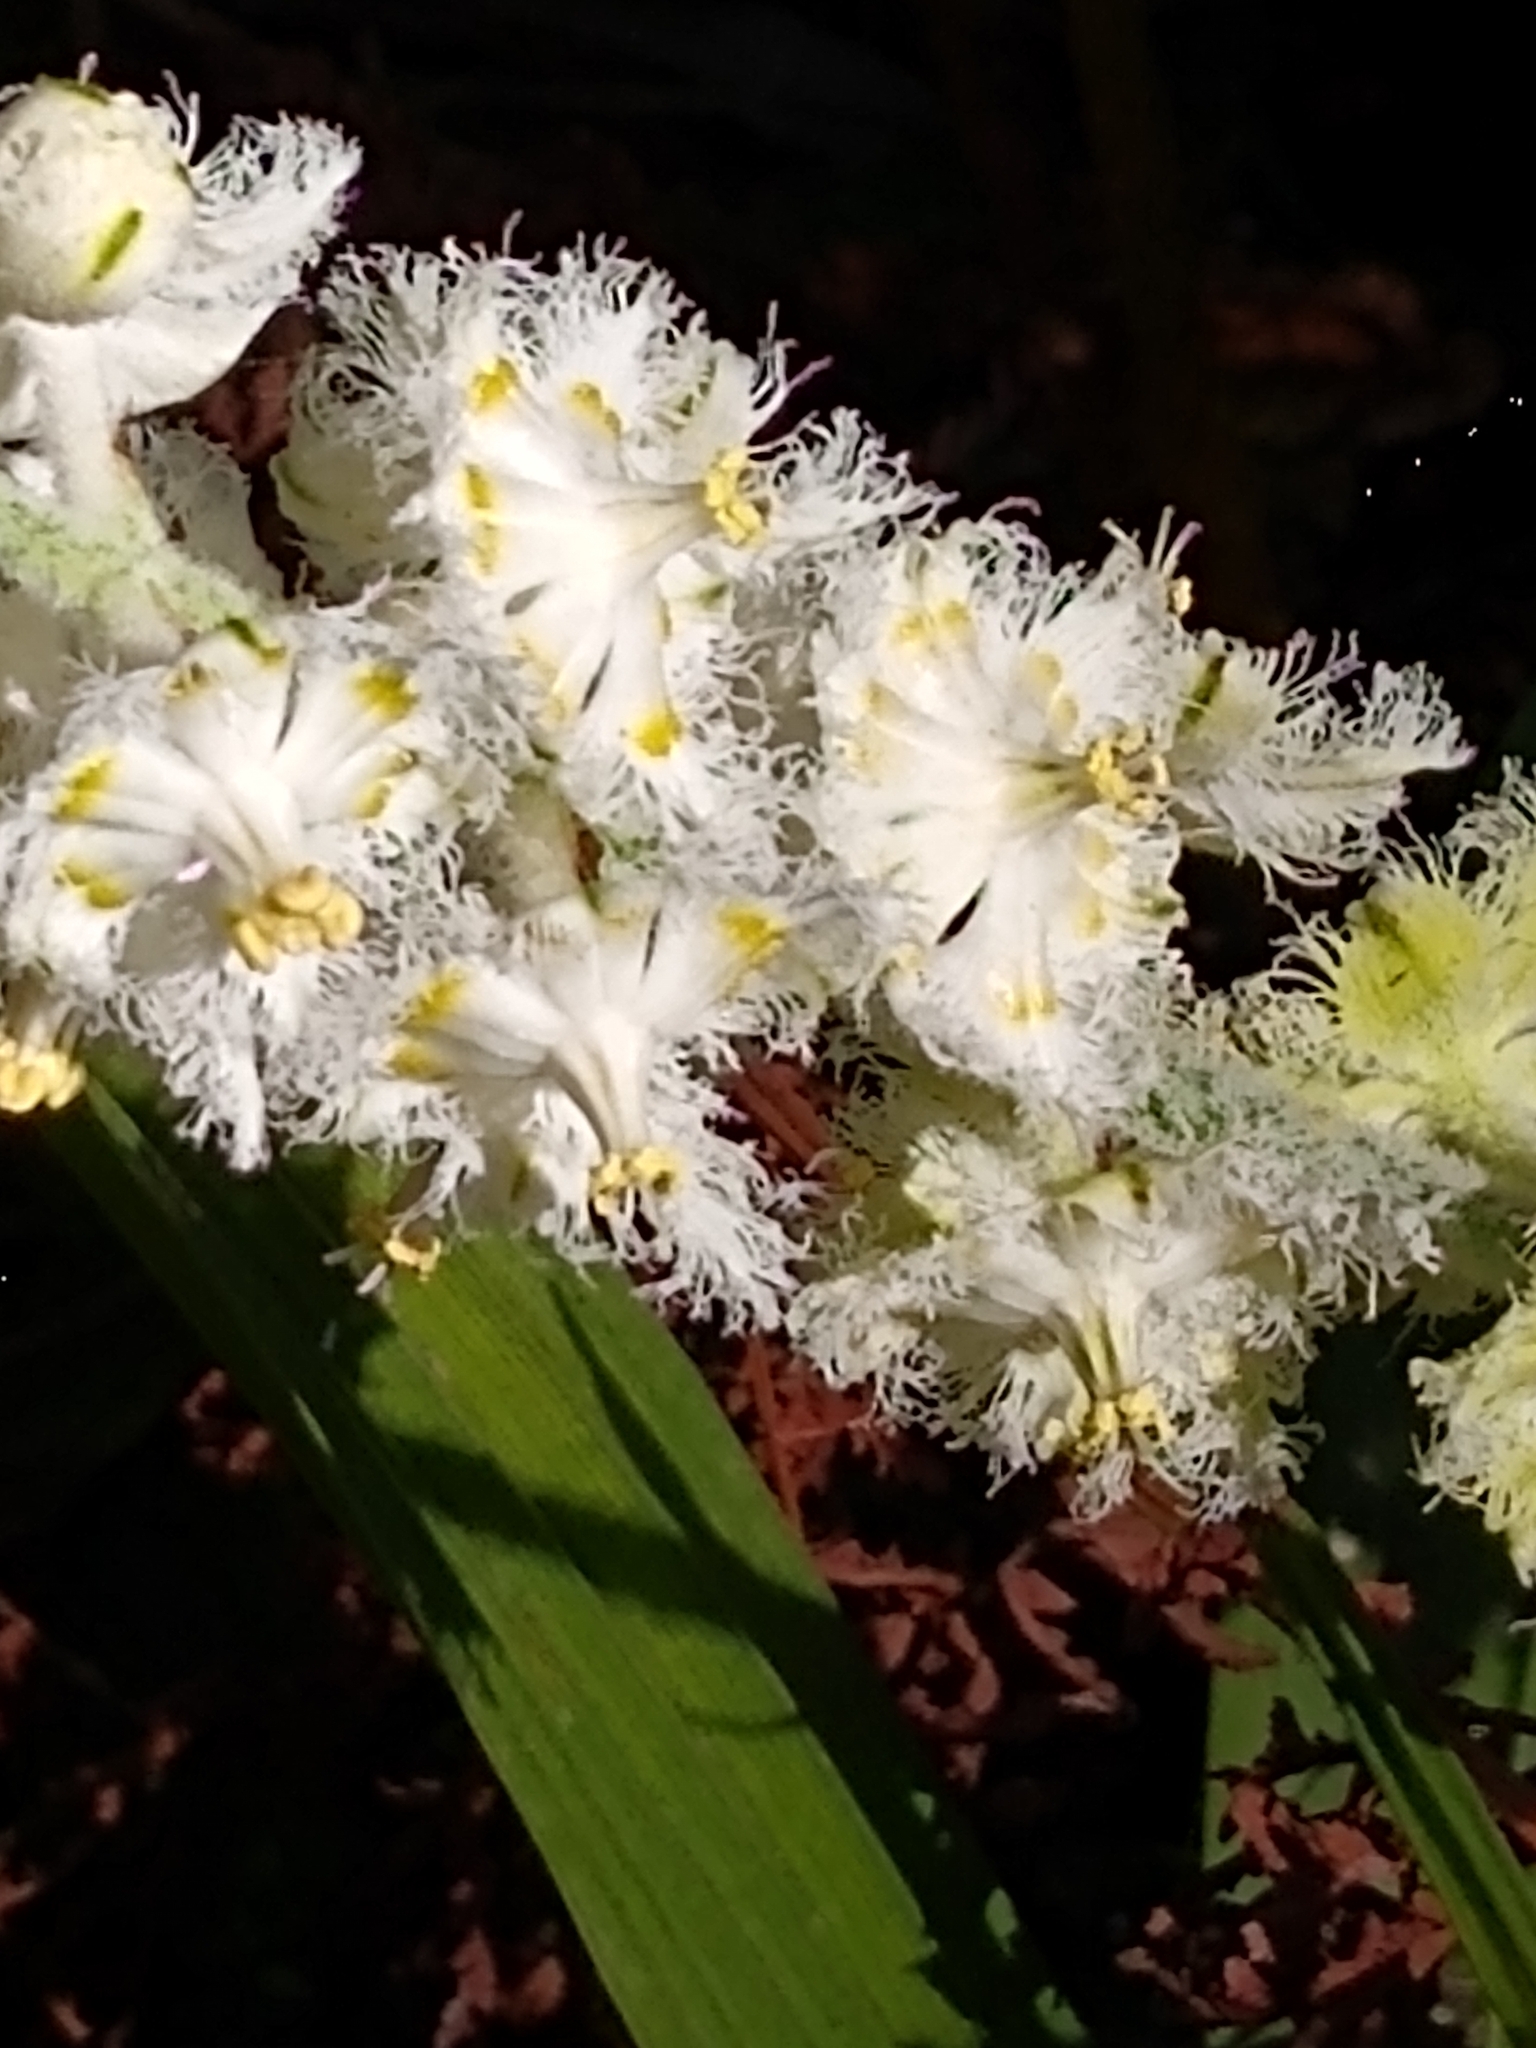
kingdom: Plantae
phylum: Tracheophyta
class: Liliopsida
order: Liliales
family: Melanthiaceae
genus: Veratrum
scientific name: Veratrum fimbriatum
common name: Fringe false hellobore
